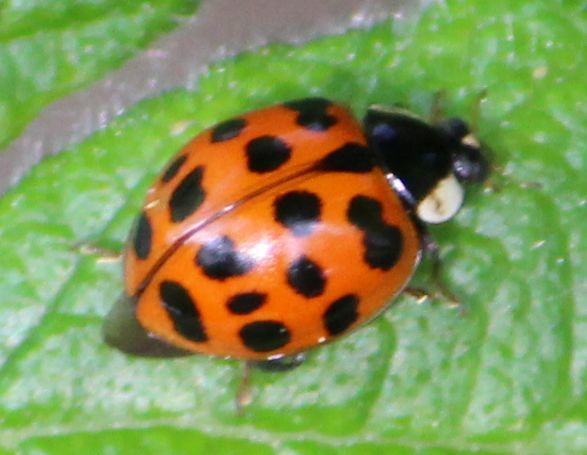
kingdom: Animalia
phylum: Arthropoda
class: Insecta
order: Coleoptera
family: Coccinellidae
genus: Harmonia
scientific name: Harmonia axyridis
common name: Harlequin ladybird
